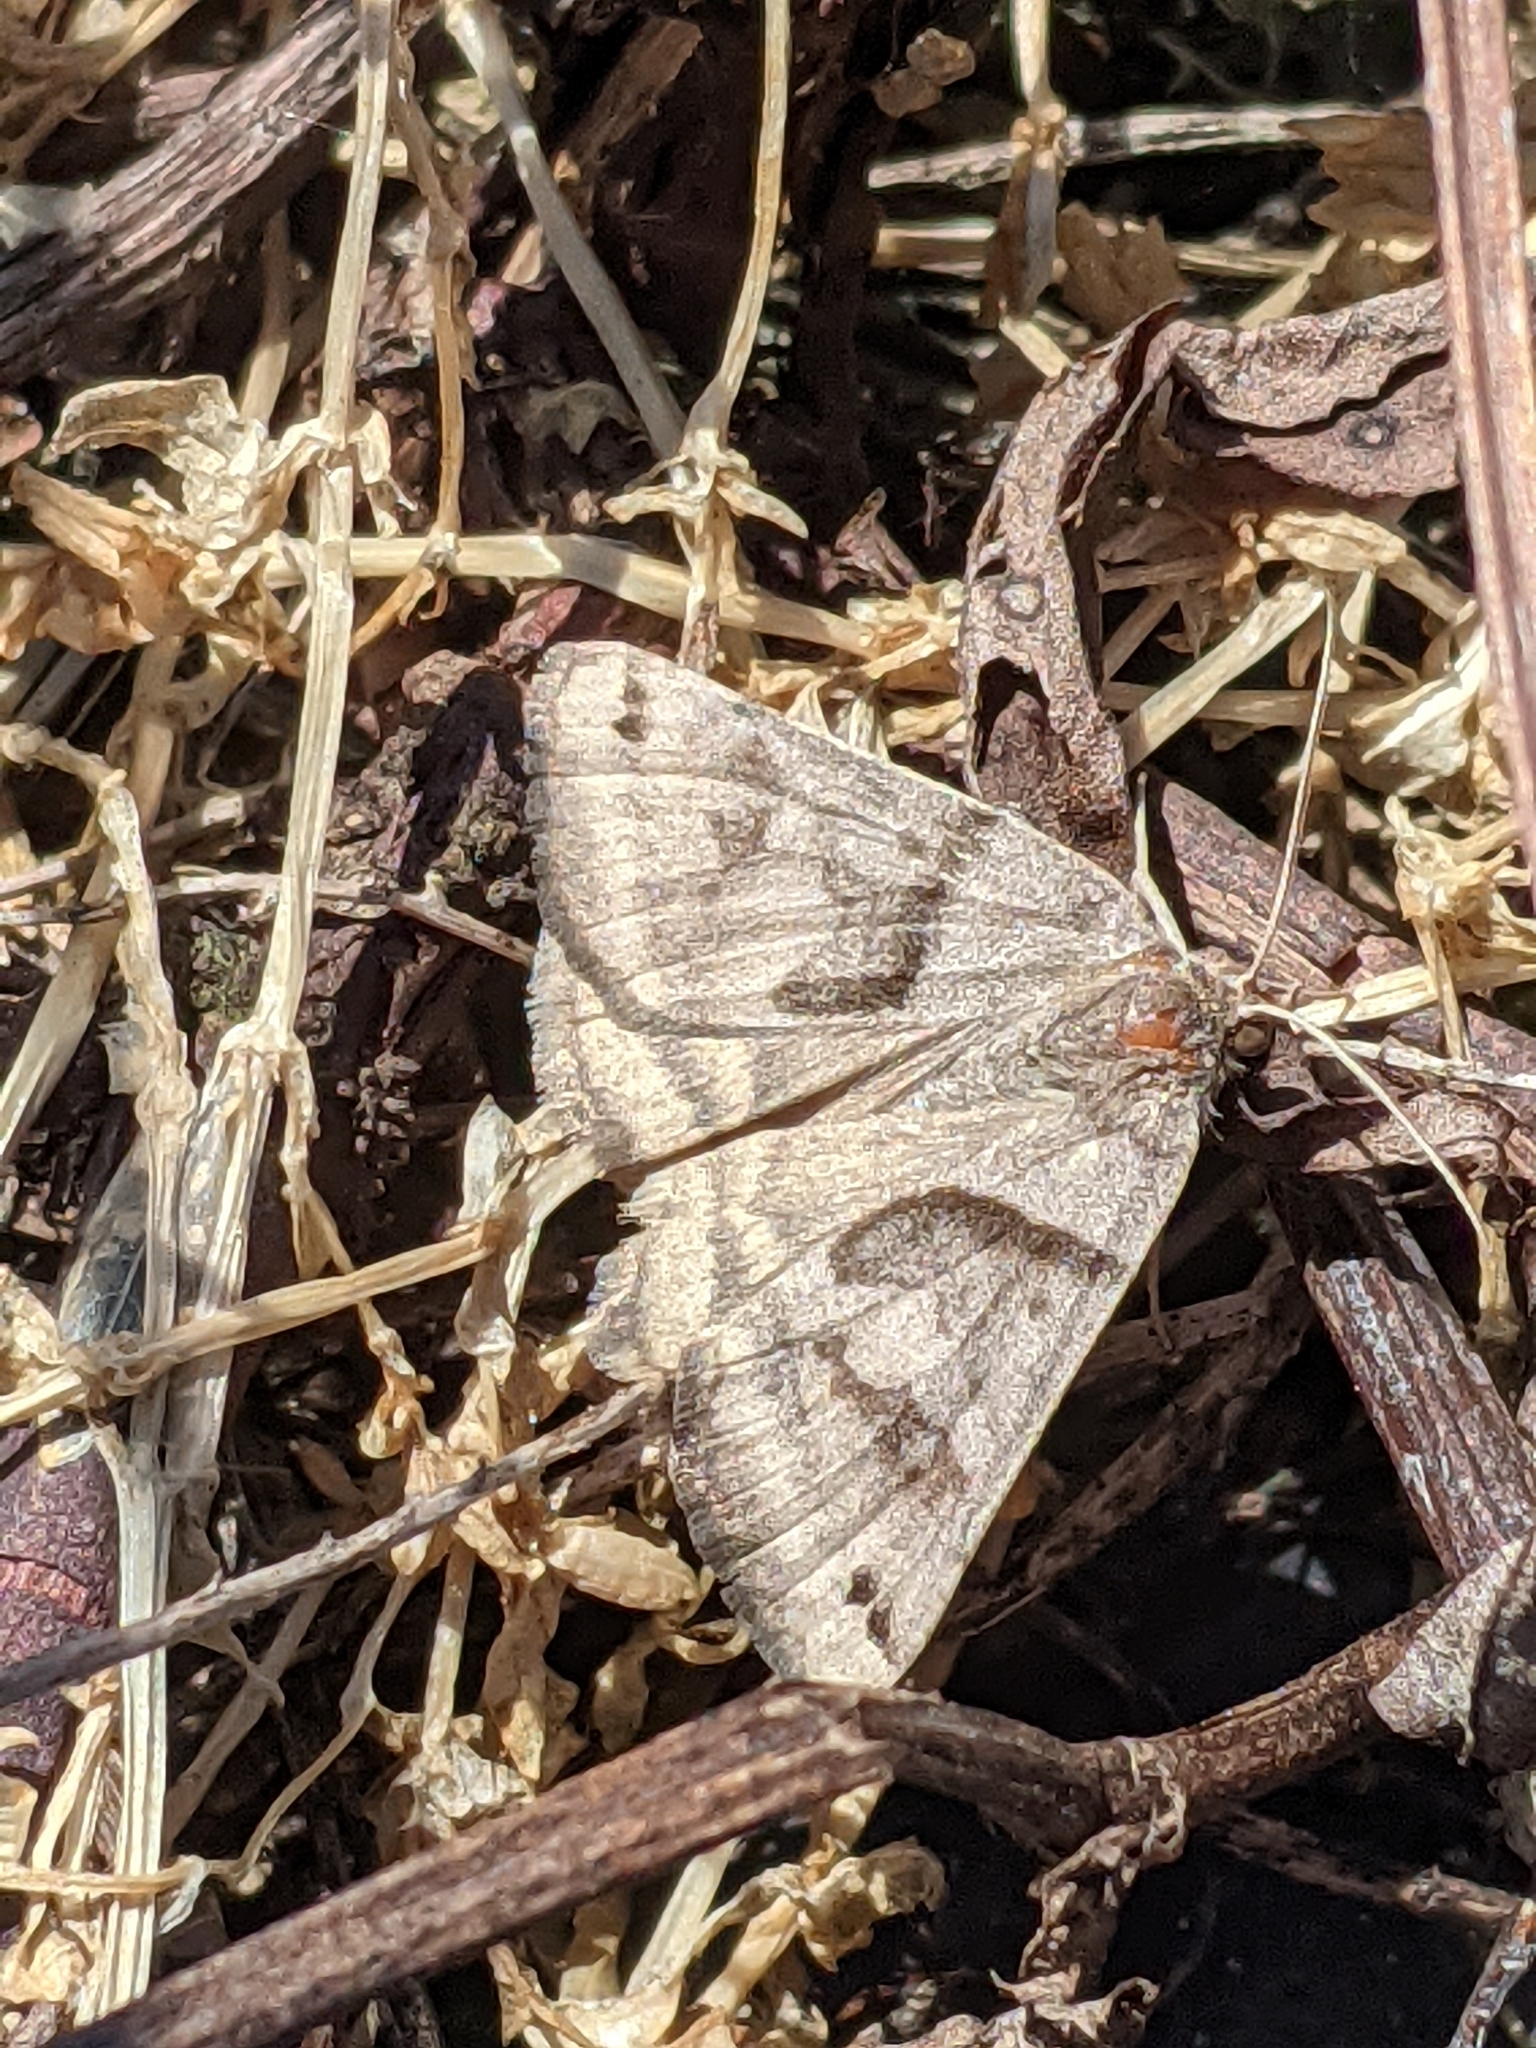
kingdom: Animalia
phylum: Arthropoda
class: Insecta
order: Lepidoptera
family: Erebidae
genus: Caenurgina
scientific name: Caenurgina erechtea
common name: Forage looper moth
